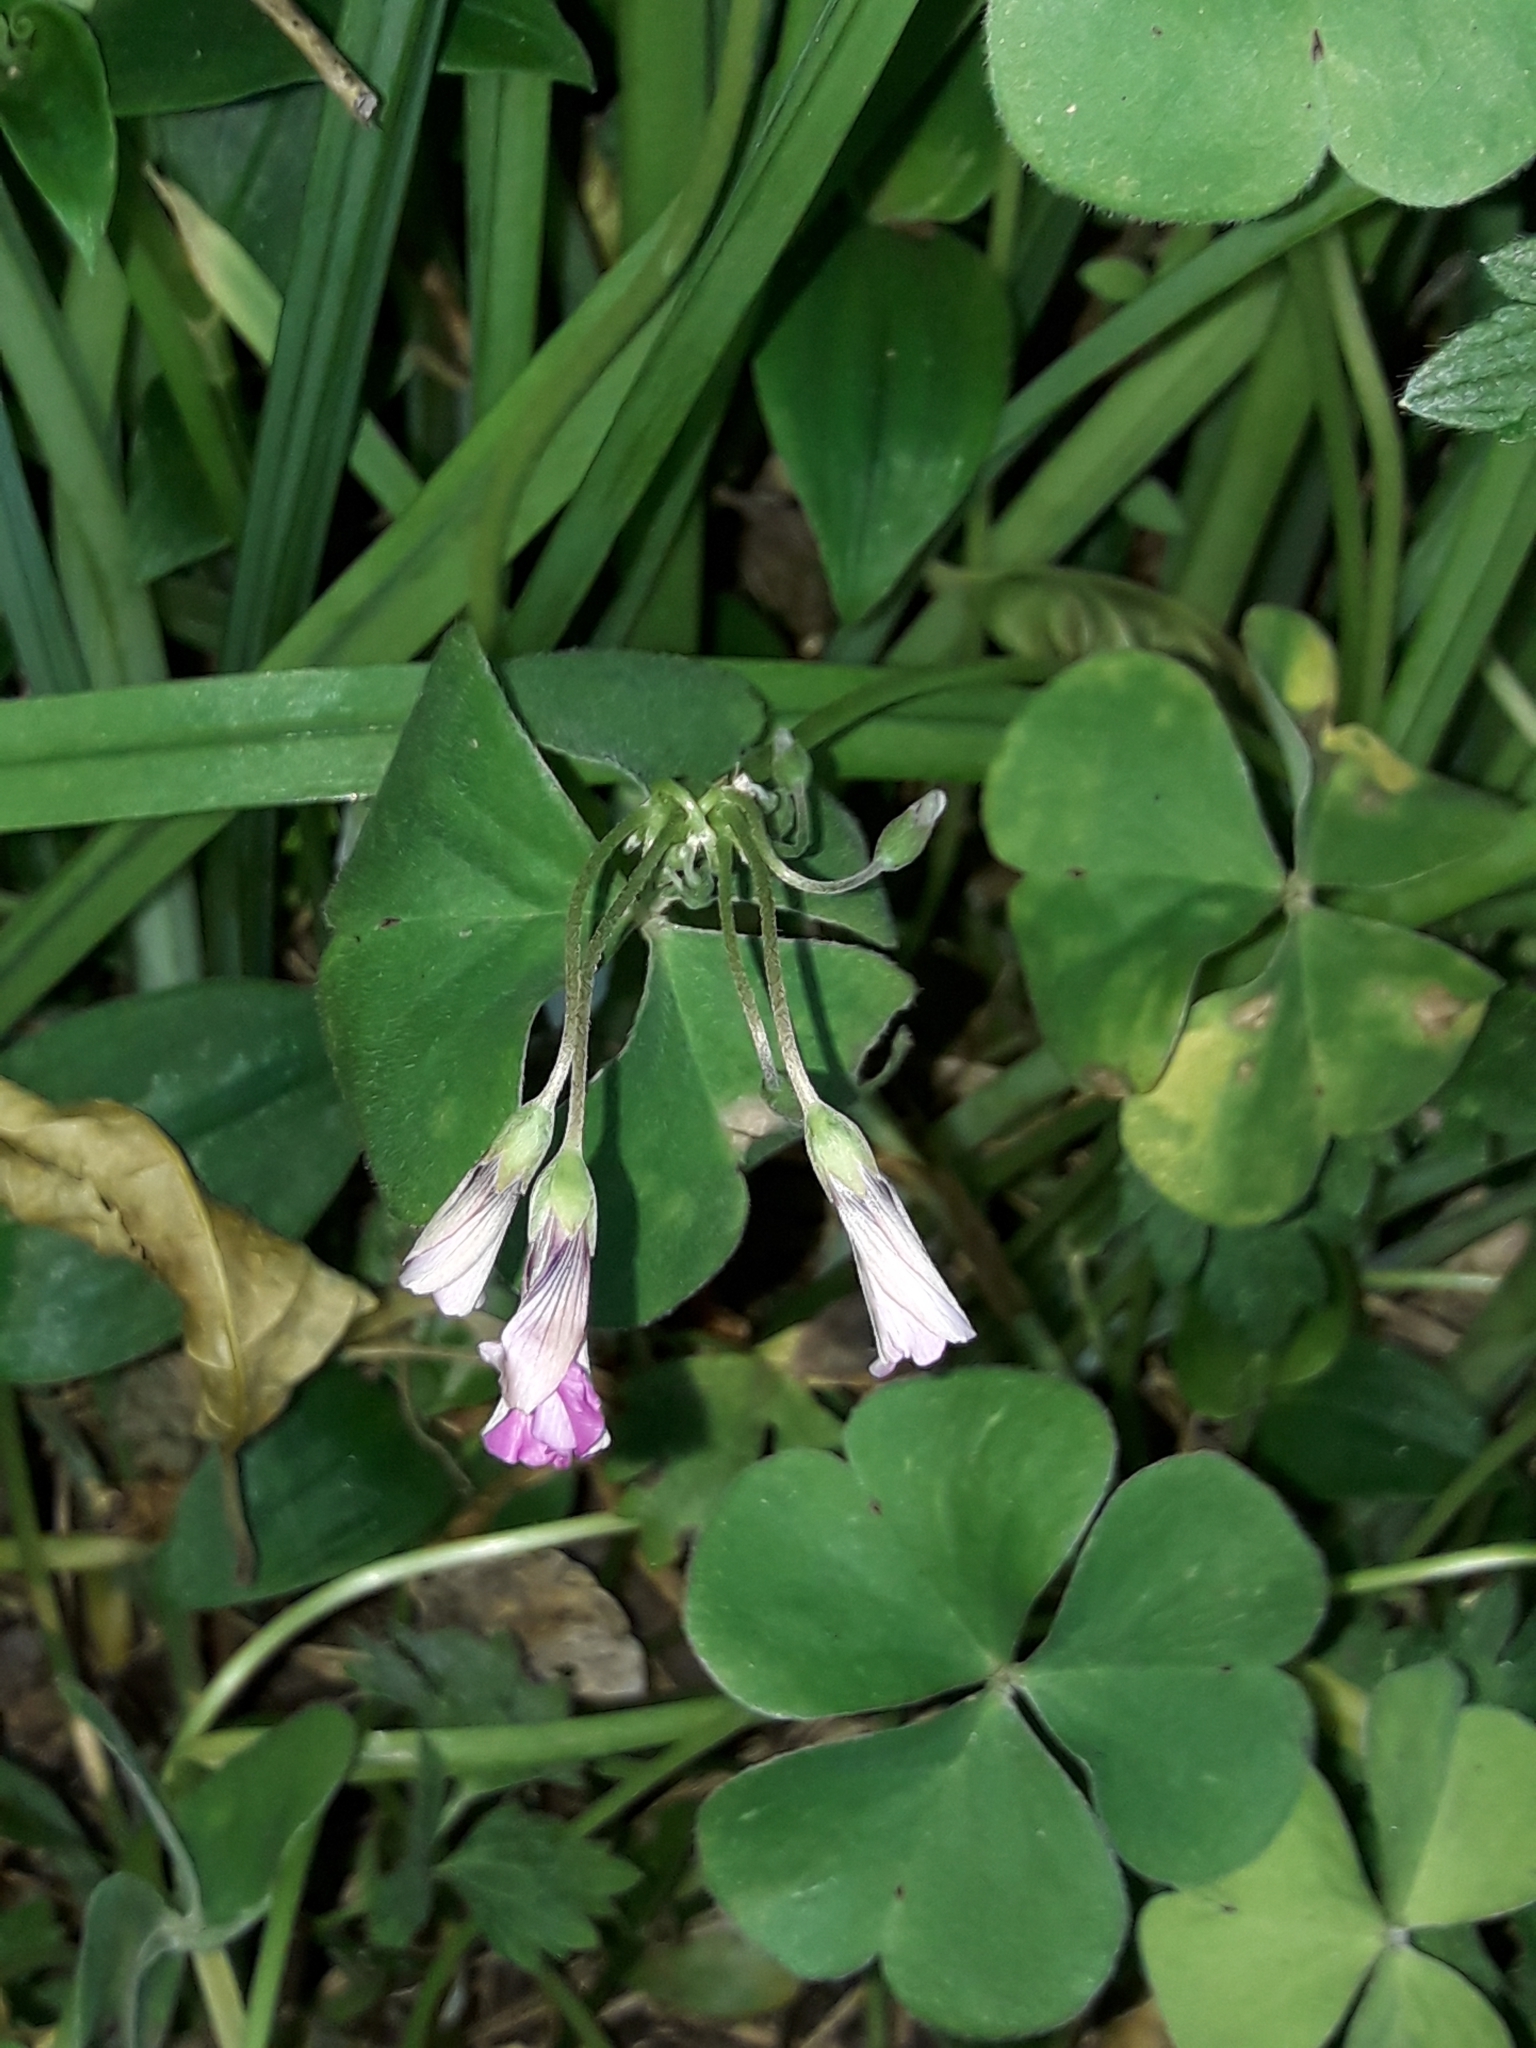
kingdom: Plantae
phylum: Tracheophyta
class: Magnoliopsida
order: Oxalidales
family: Oxalidaceae
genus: Oxalis
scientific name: Oxalis articulata
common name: Pink-sorrel
